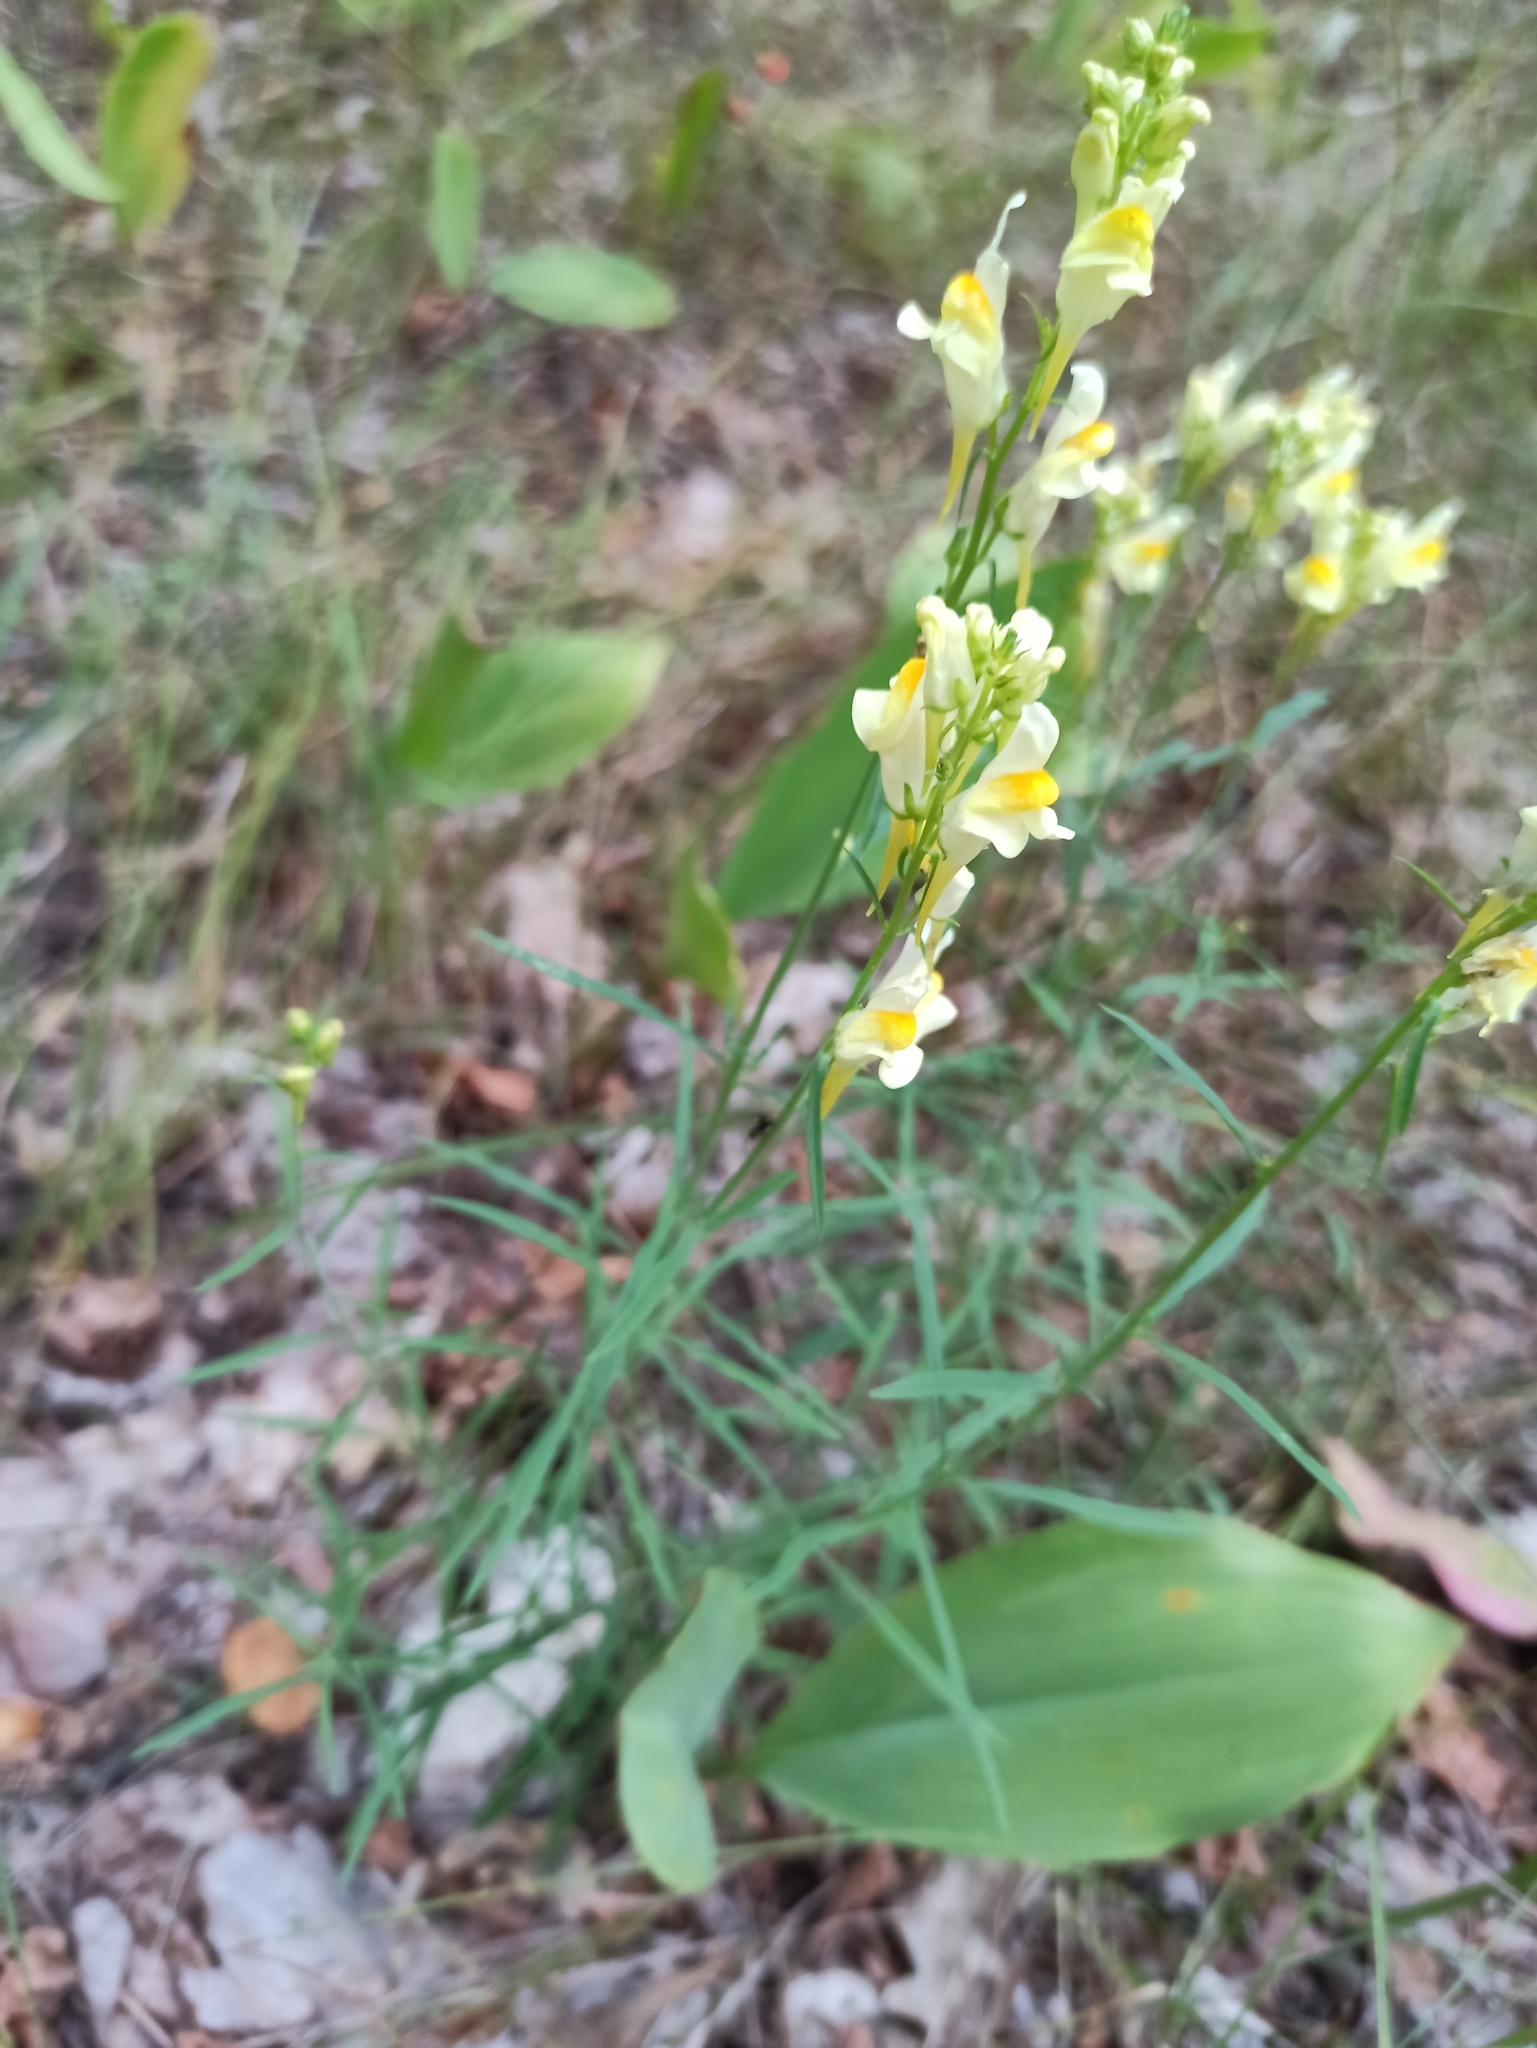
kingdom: Plantae
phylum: Tracheophyta
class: Magnoliopsida
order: Lamiales
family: Plantaginaceae
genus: Linaria
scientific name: Linaria vulgaris
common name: Butter and eggs
